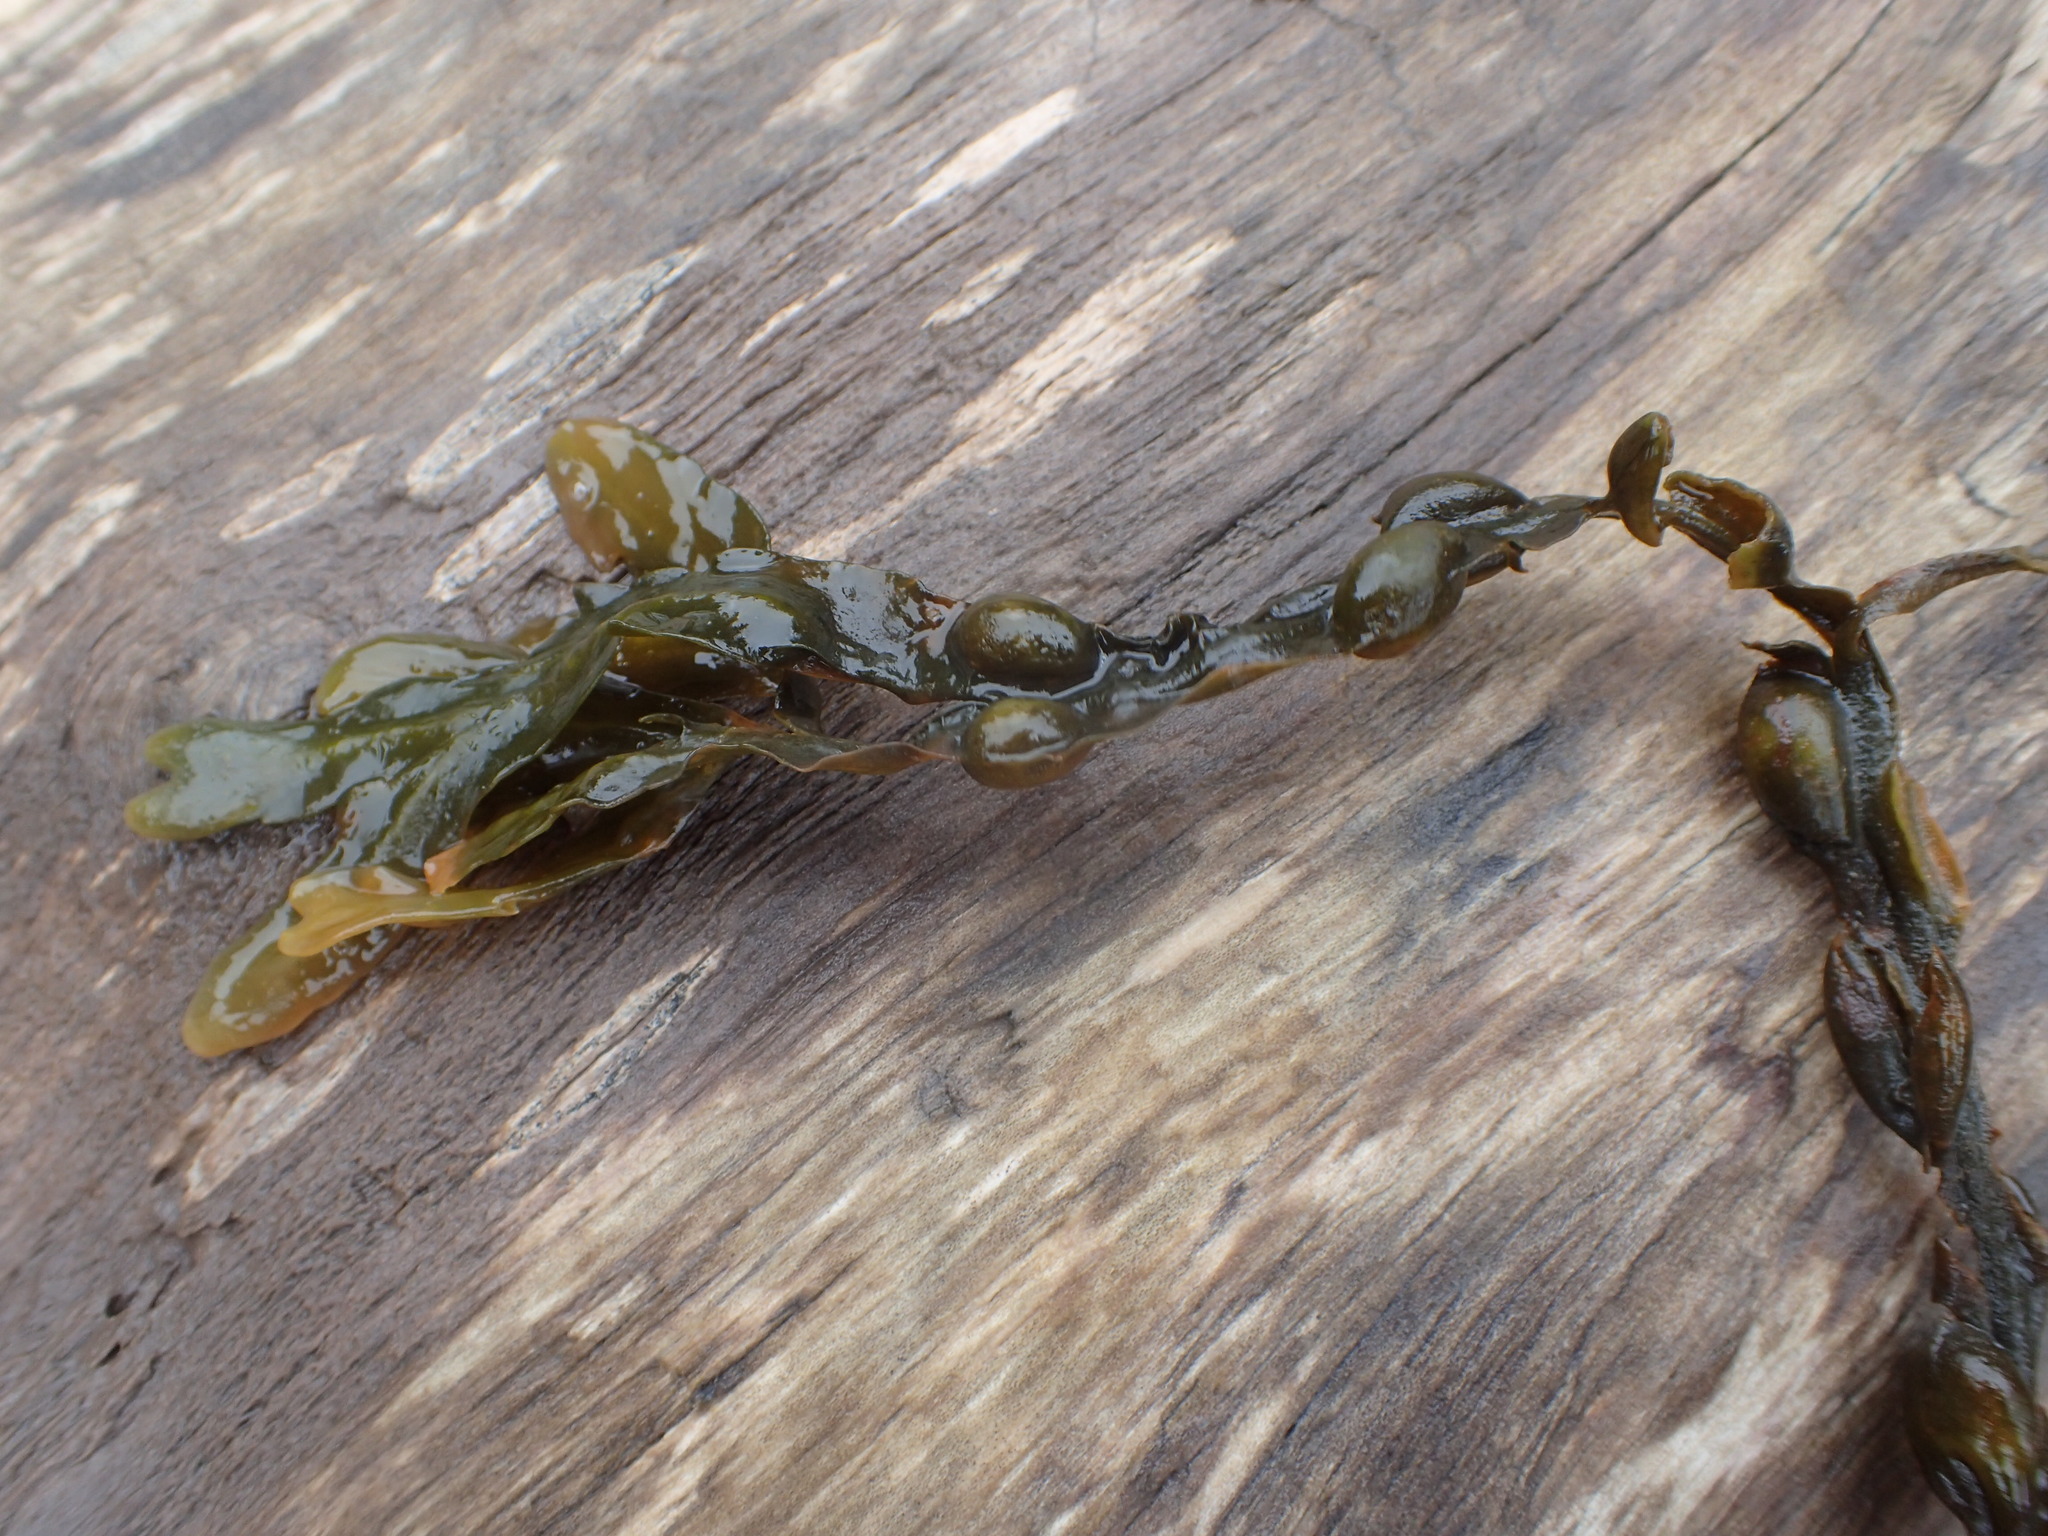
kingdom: Chromista
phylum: Ochrophyta
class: Phaeophyceae
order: Fucales
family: Fucaceae
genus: Fucus
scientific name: Fucus vesiculosus
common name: Bladder wrack
